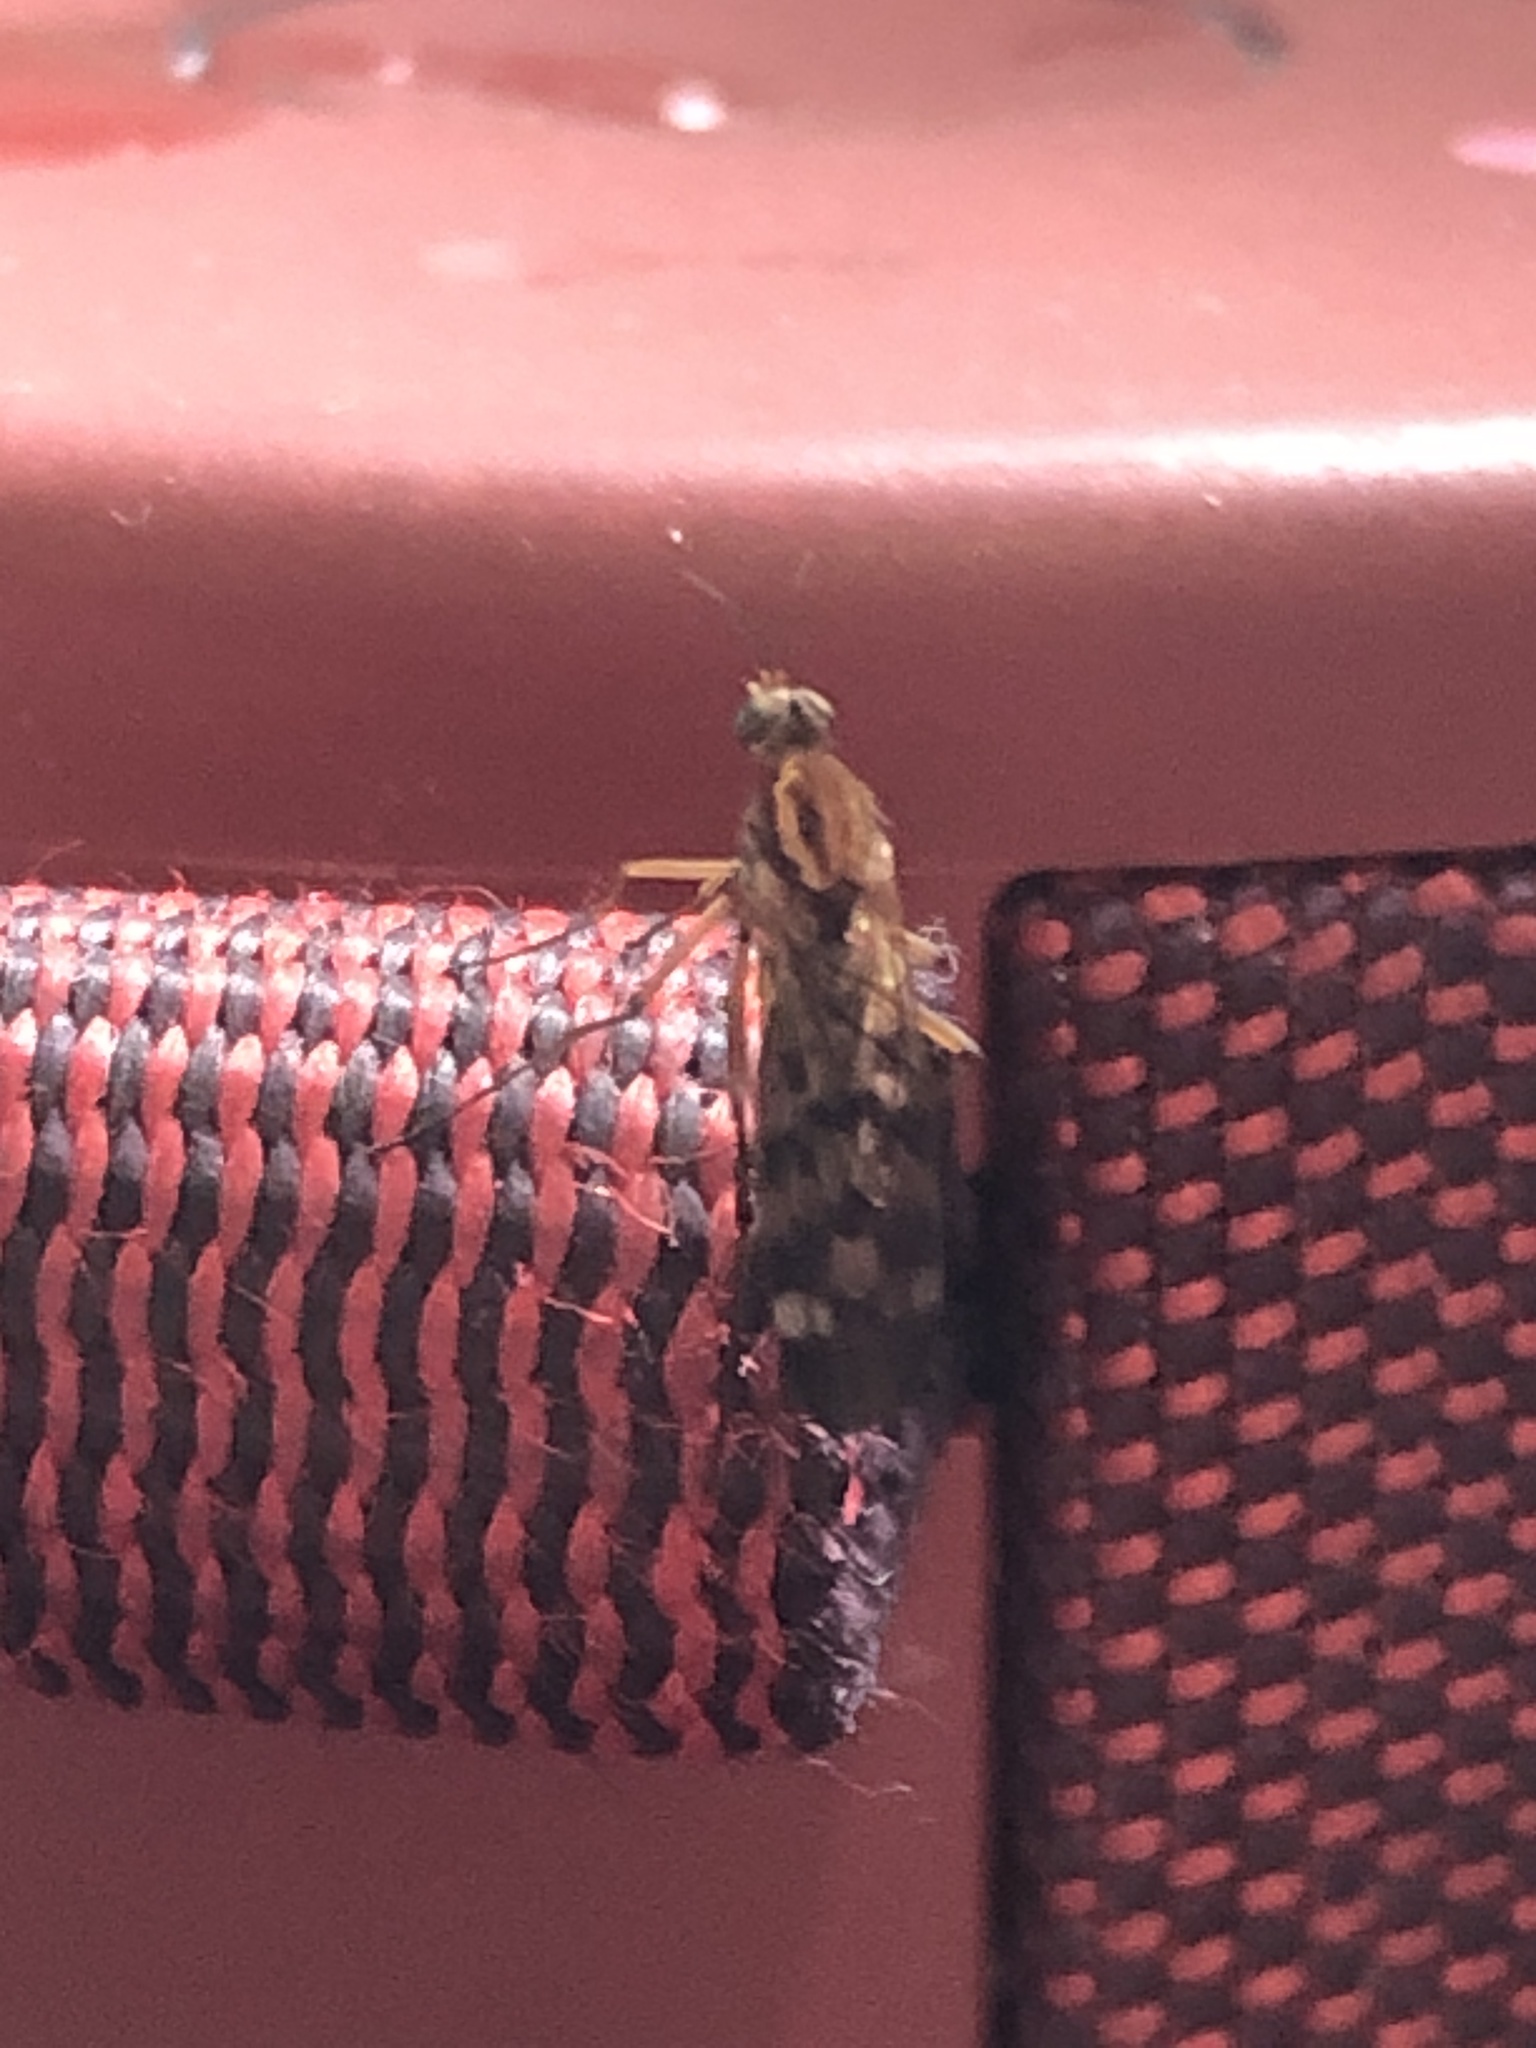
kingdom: Animalia
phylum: Arthropoda
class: Insecta
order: Diptera
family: Anisopodidae
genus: Sylvicola
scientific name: Sylvicola notatus
